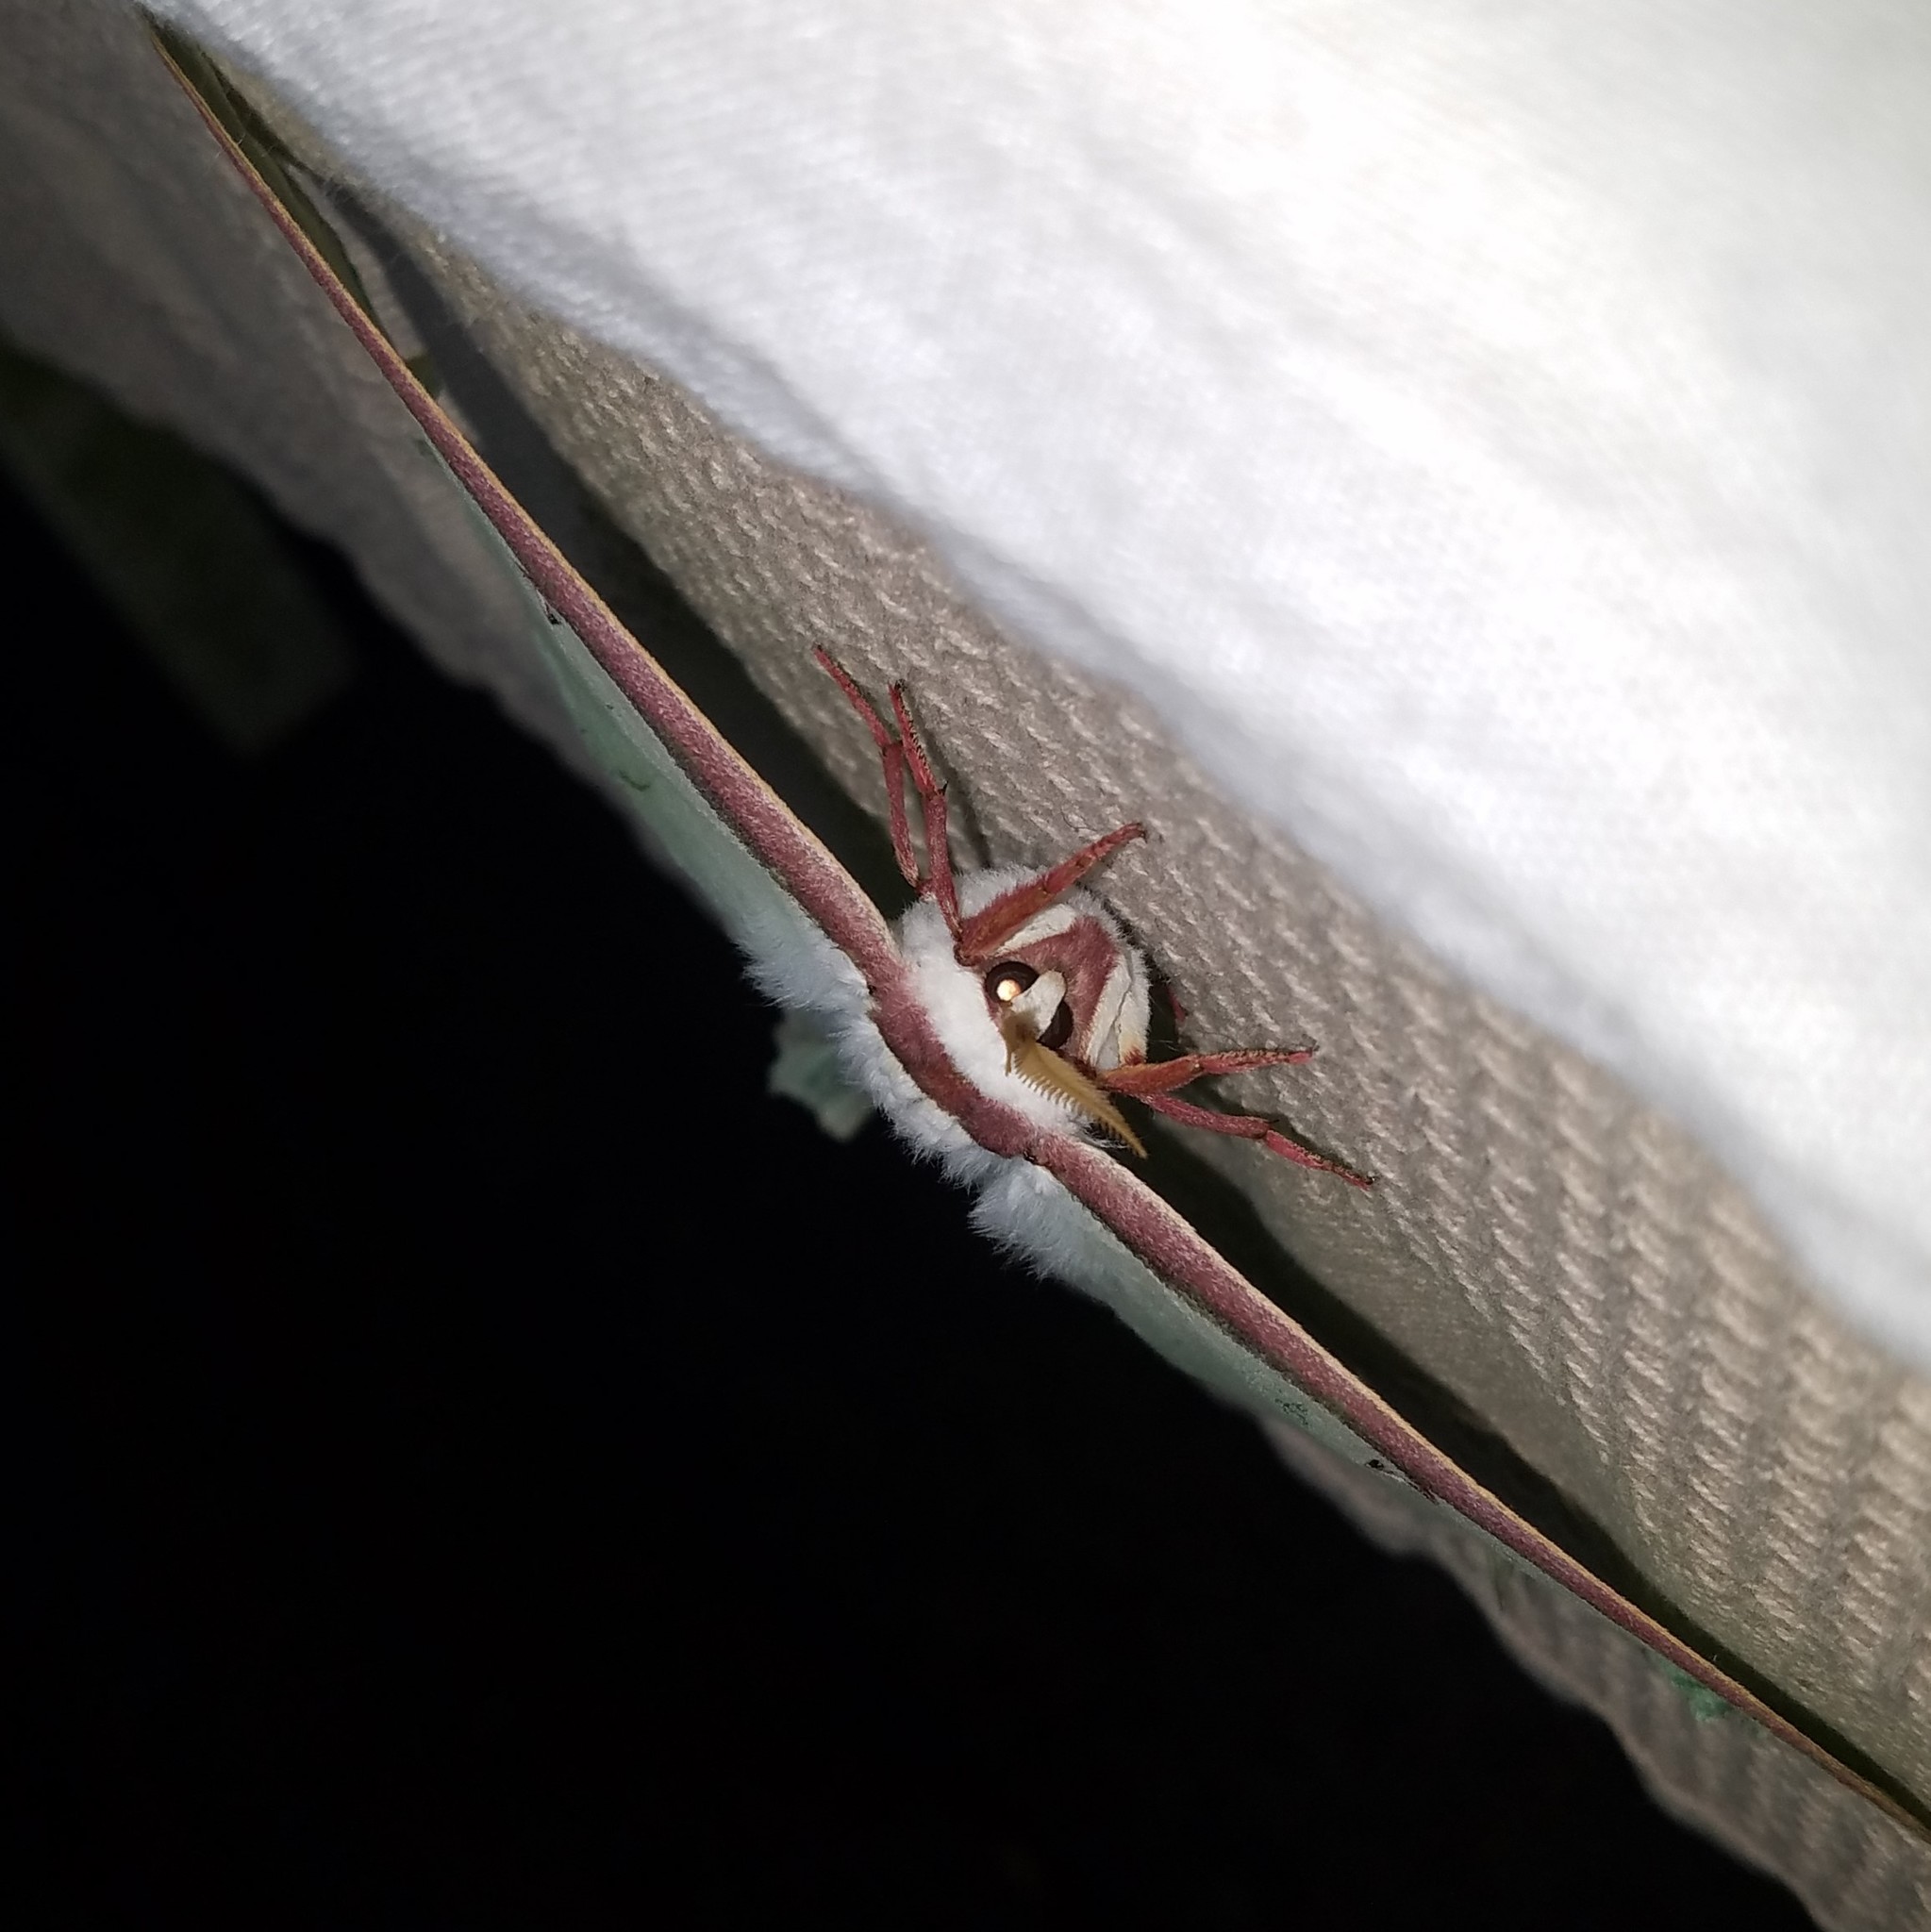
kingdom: Animalia
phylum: Arthropoda
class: Insecta
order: Lepidoptera
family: Saturniidae
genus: Actias
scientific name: Actias luna
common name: Luna moth
